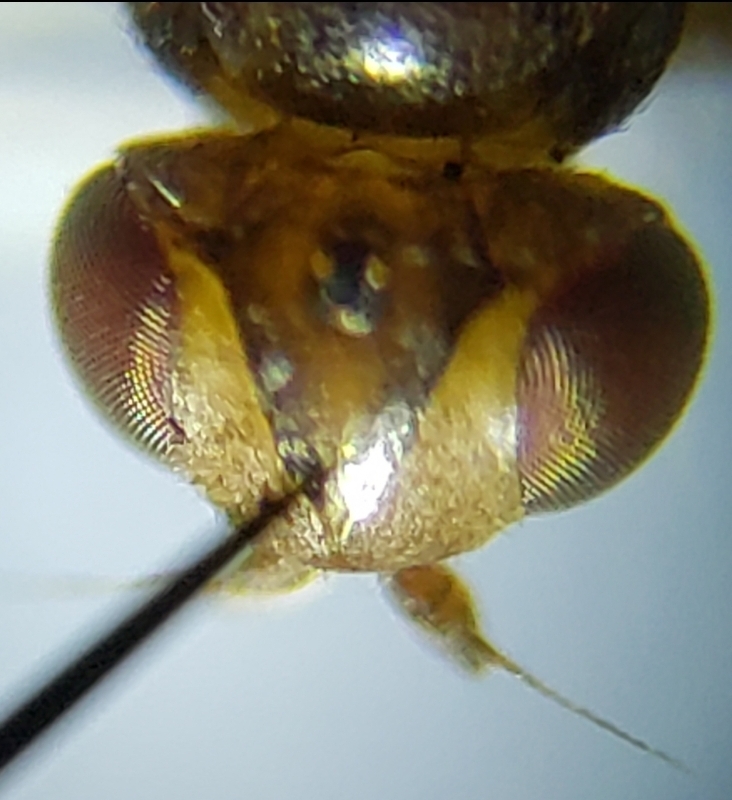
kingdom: Animalia
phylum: Arthropoda
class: Insecta
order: Diptera
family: Chloropidae
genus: Thaumatomyia
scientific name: Thaumatomyia pulla
